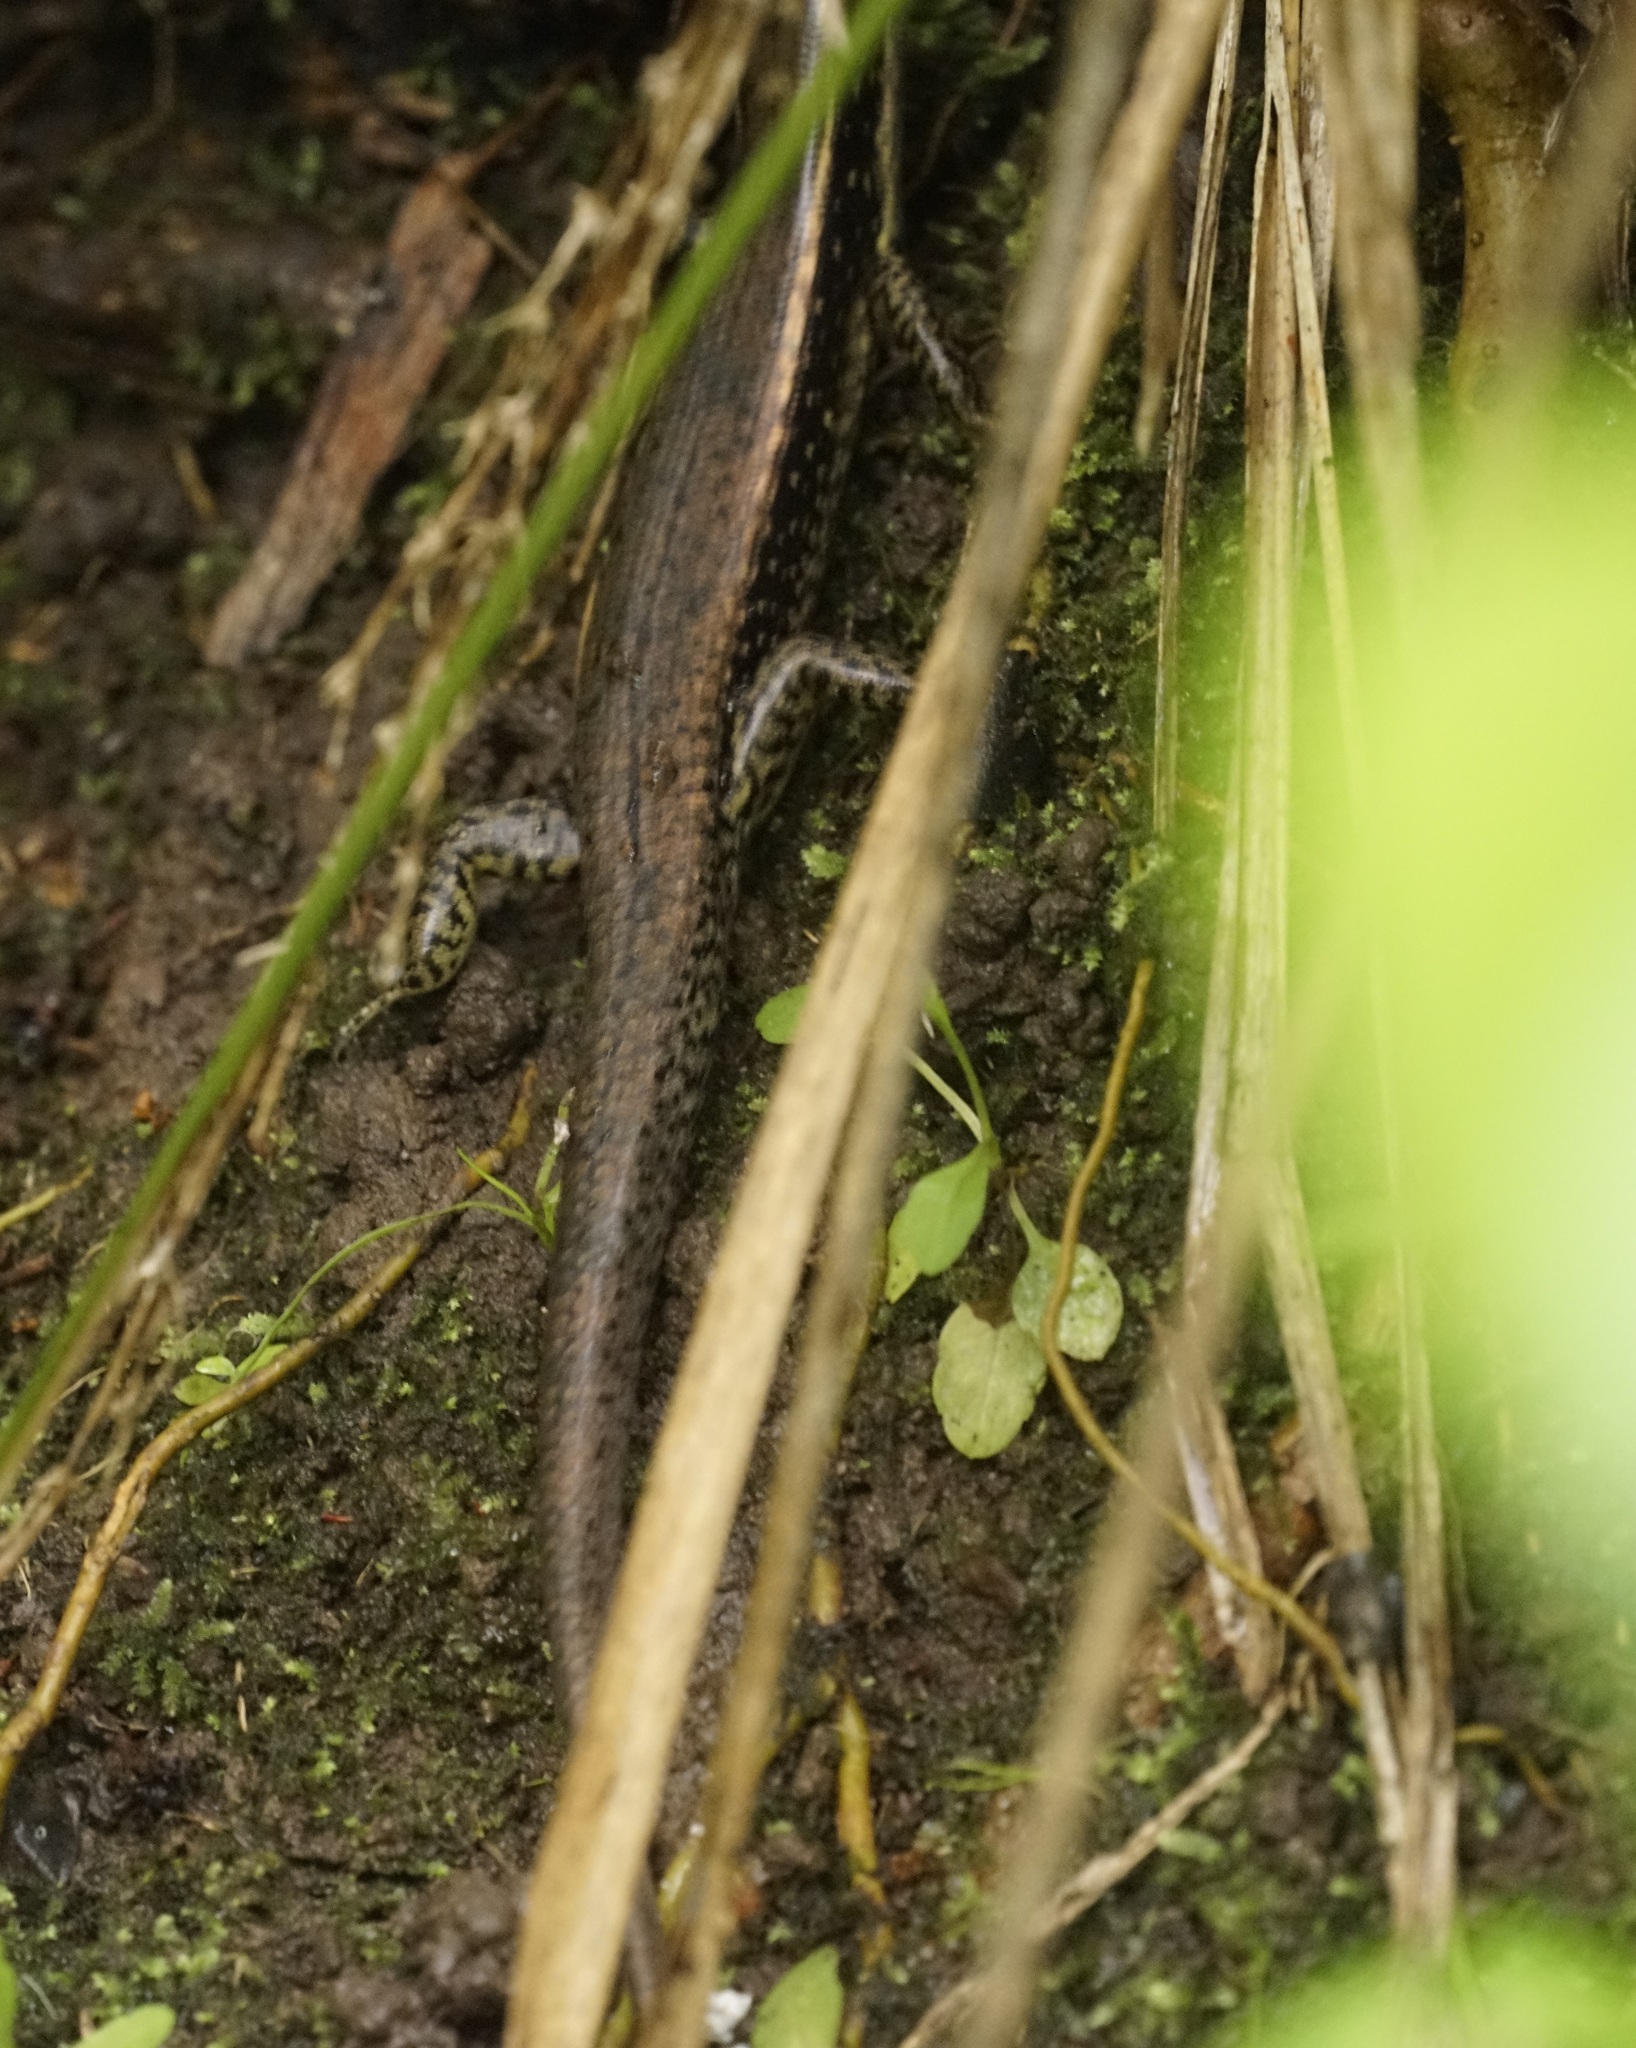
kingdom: Animalia
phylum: Chordata
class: Squamata
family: Scincidae
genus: Eulamprus
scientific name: Eulamprus quoyii
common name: Eastern water skink
